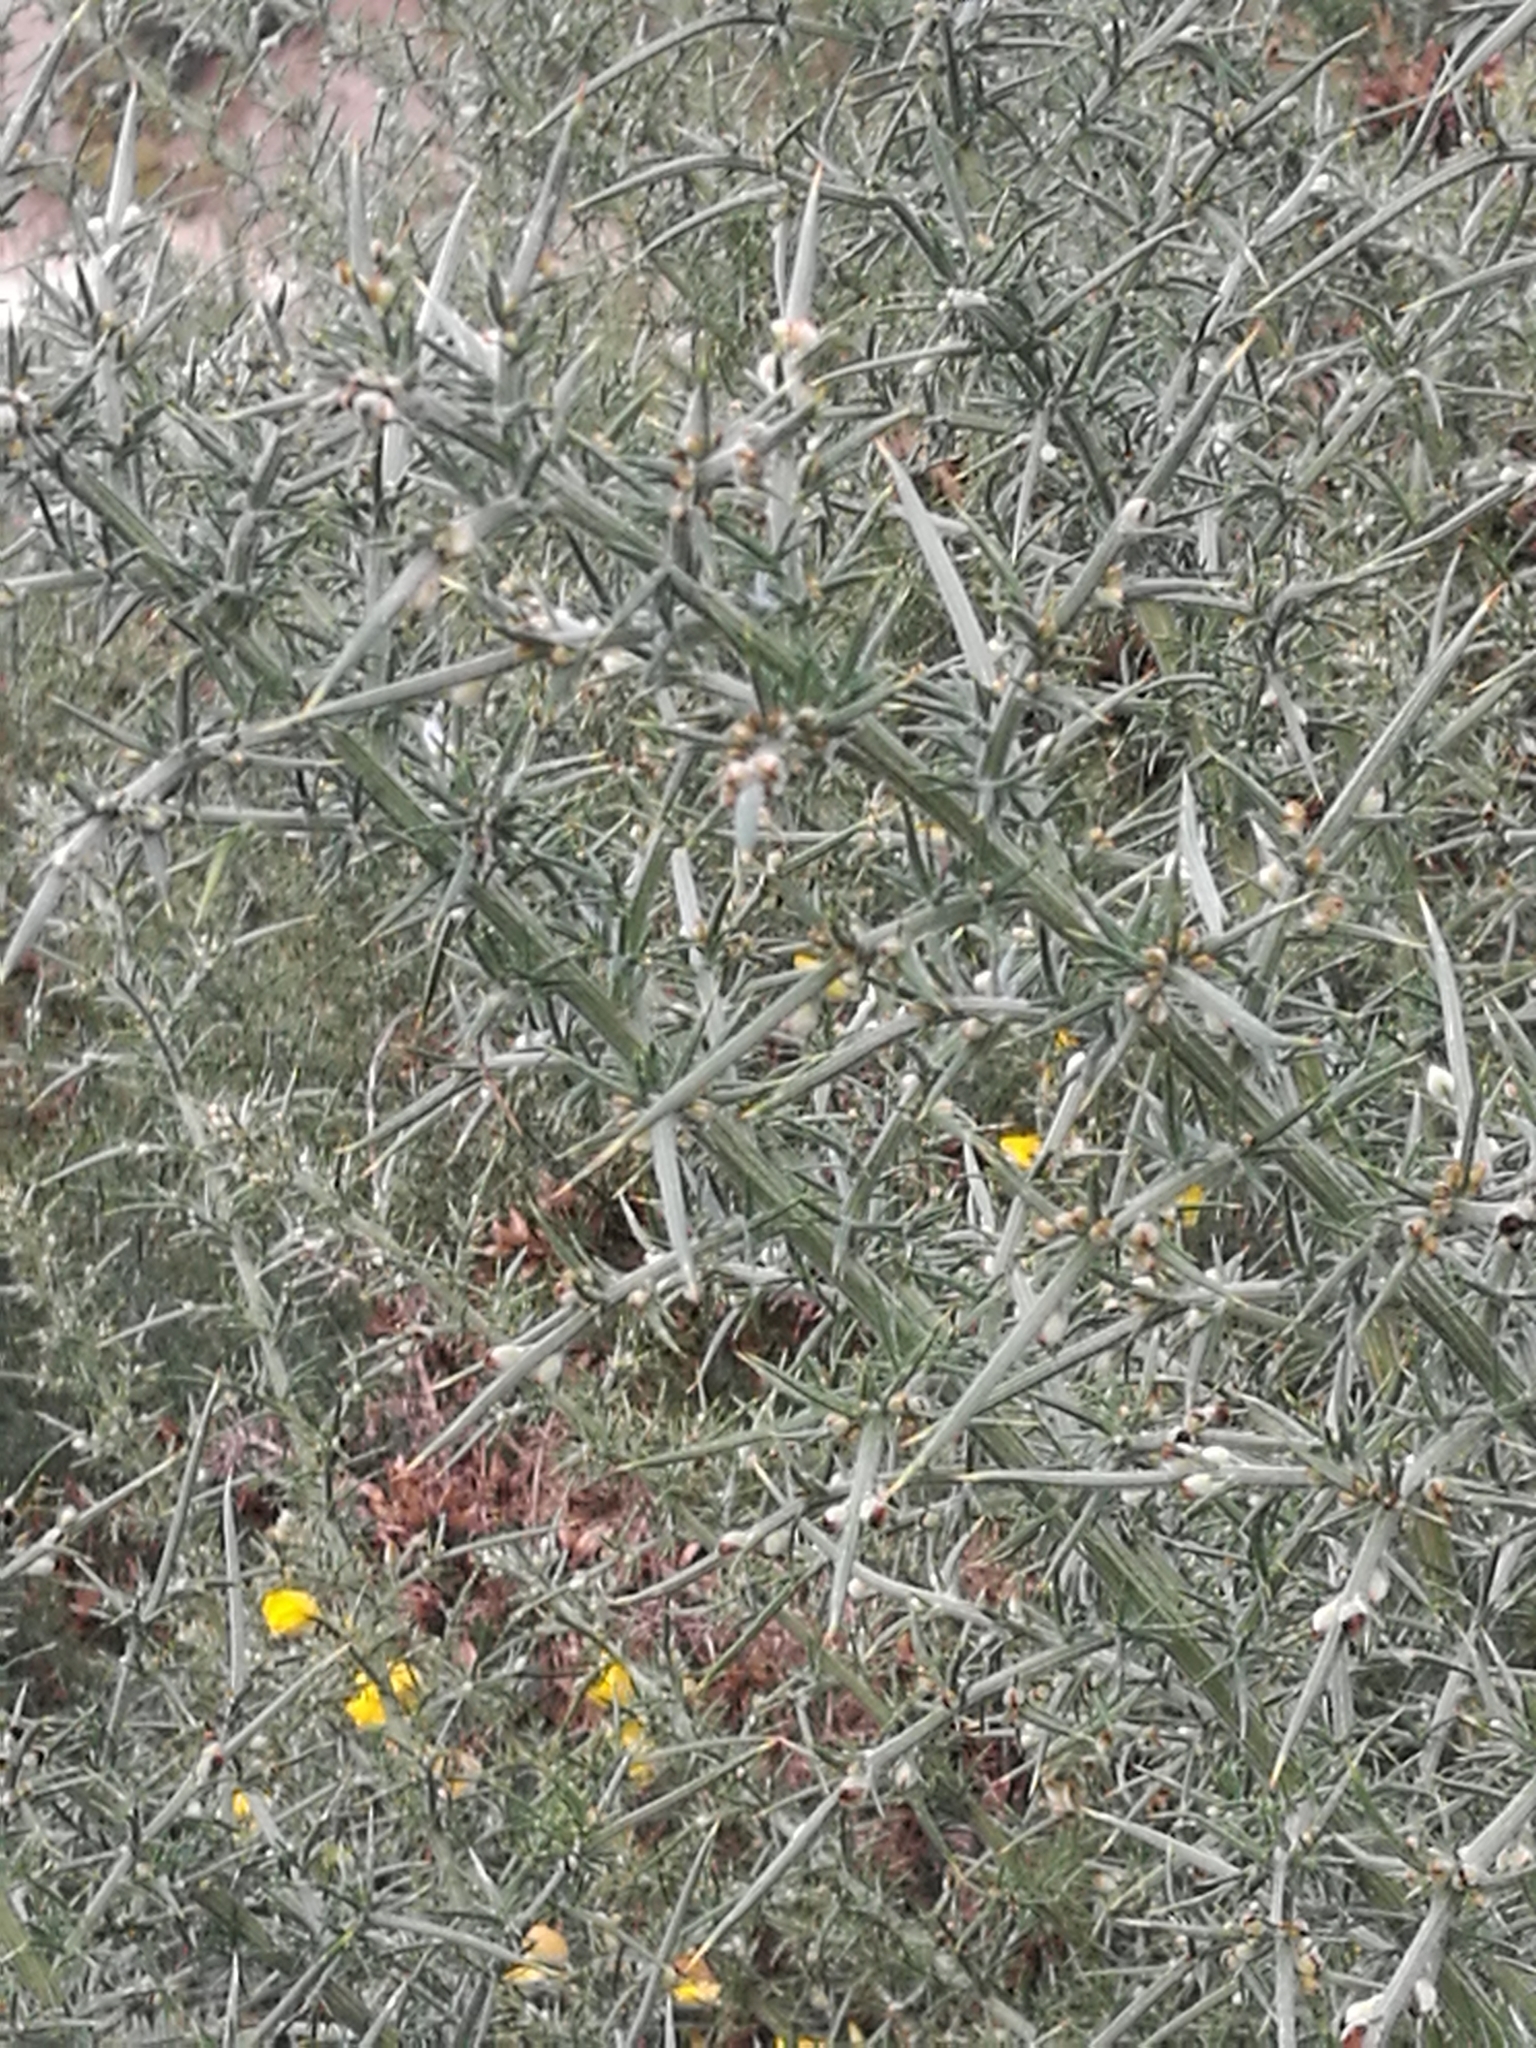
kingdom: Plantae
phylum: Tracheophyta
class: Magnoliopsida
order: Fabales
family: Fabaceae
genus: Ulex
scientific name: Ulex europaeus
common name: Common gorse
